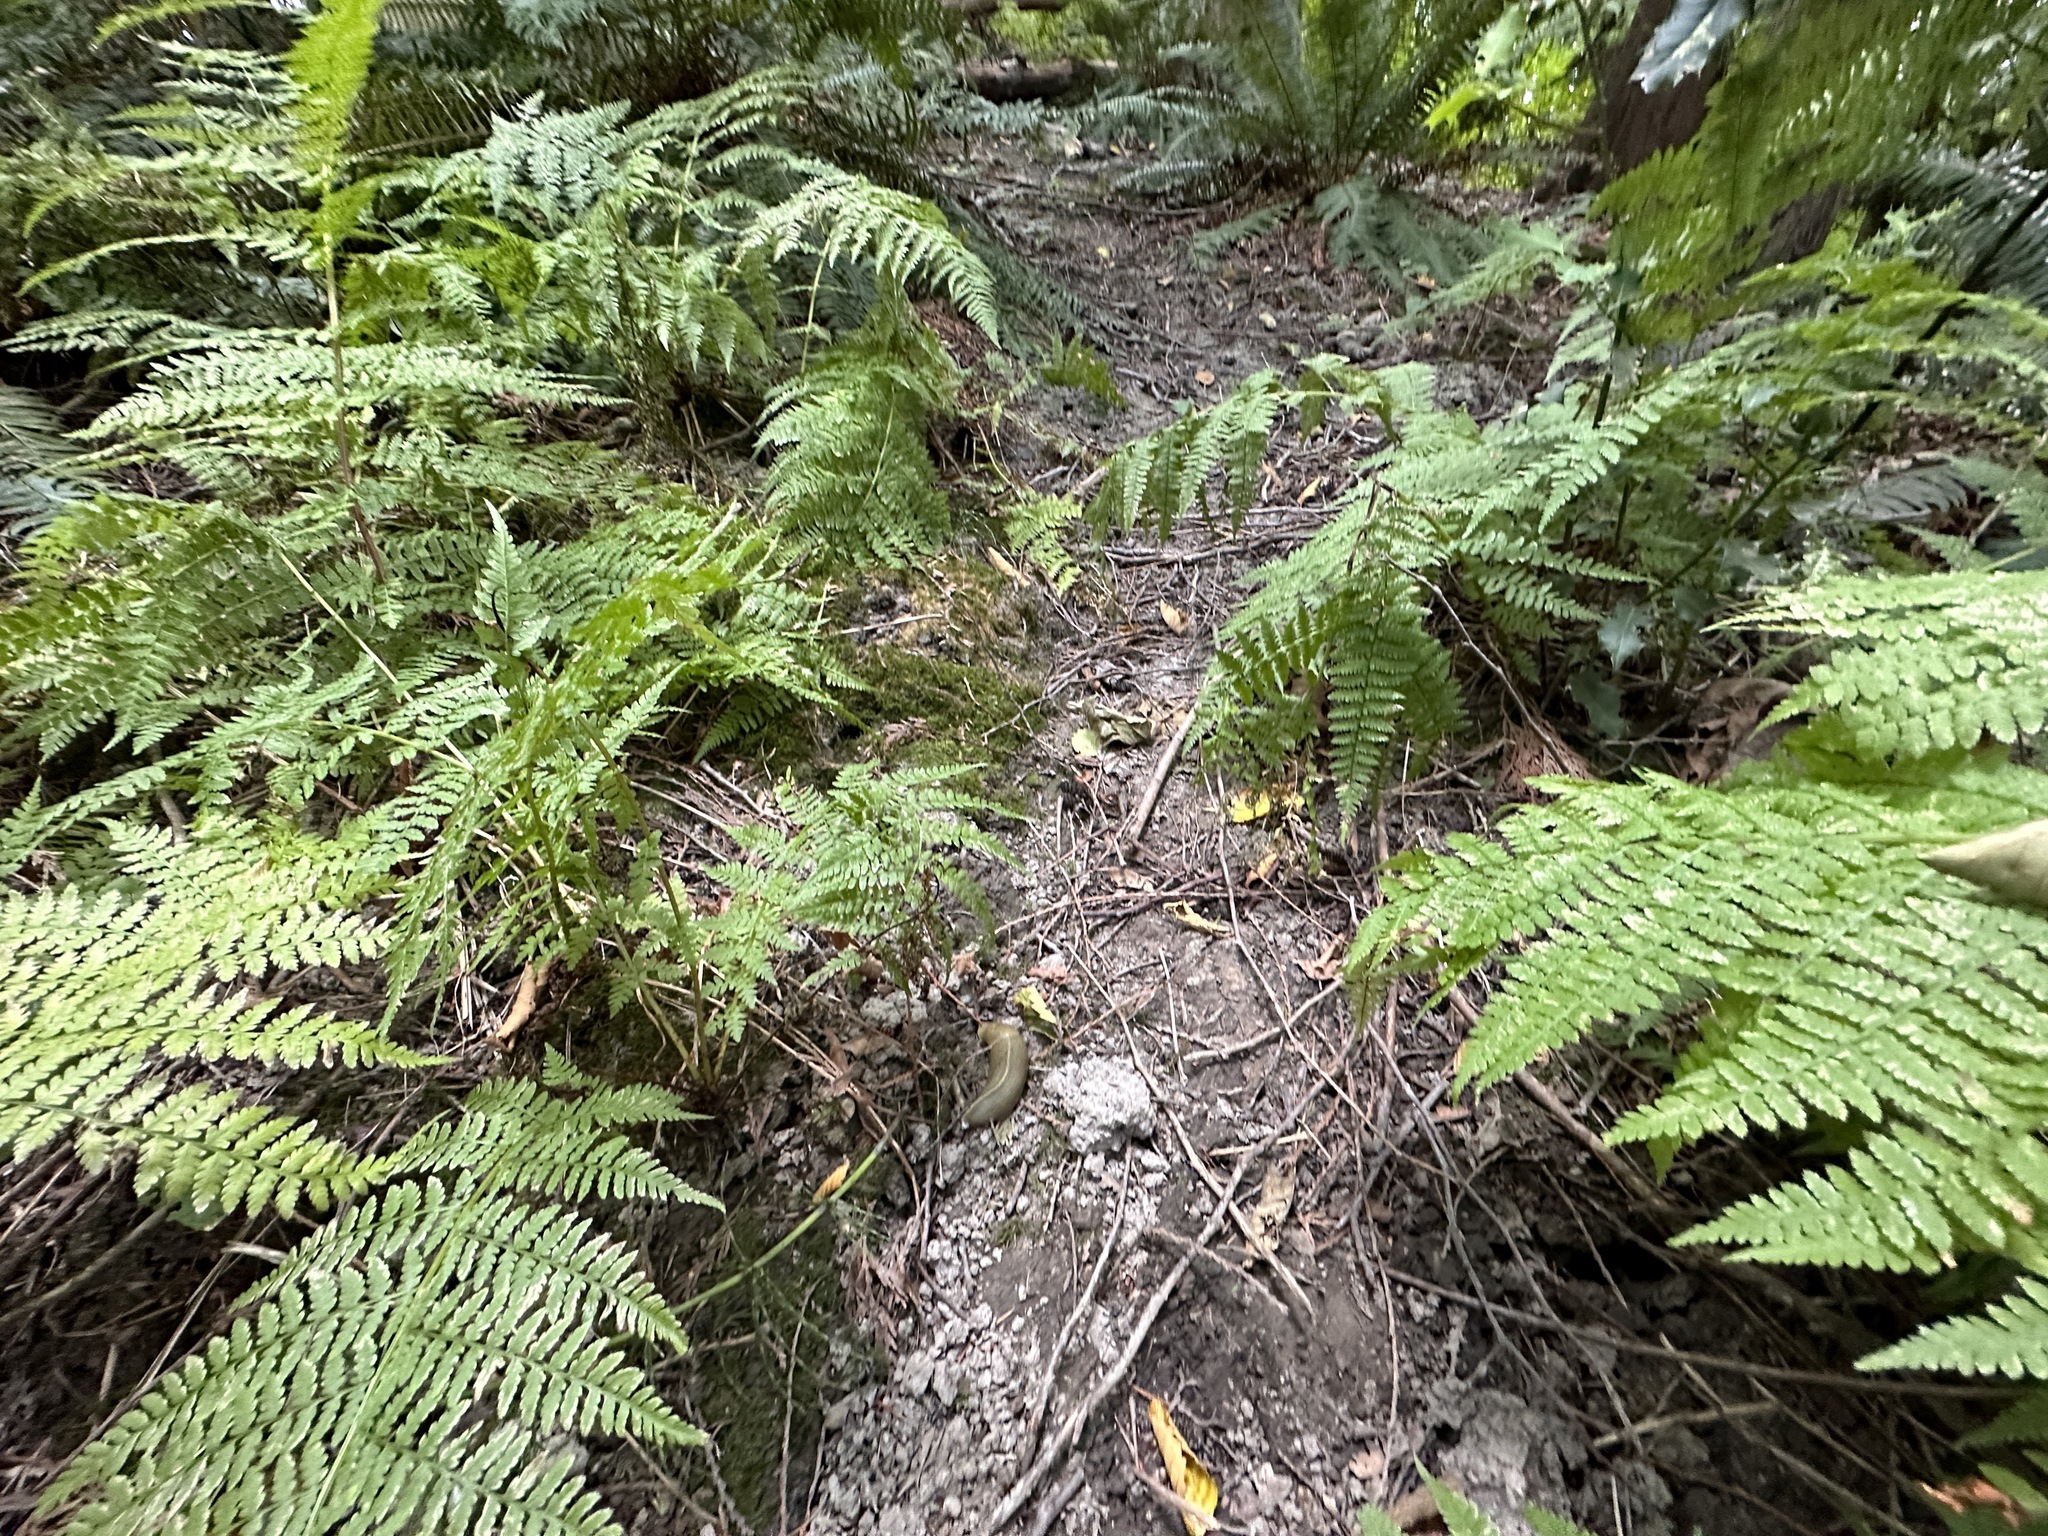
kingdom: Animalia
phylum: Mollusca
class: Gastropoda
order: Stylommatophora
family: Ariolimacidae
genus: Ariolimax
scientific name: Ariolimax columbianus
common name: Pacific banana slug
